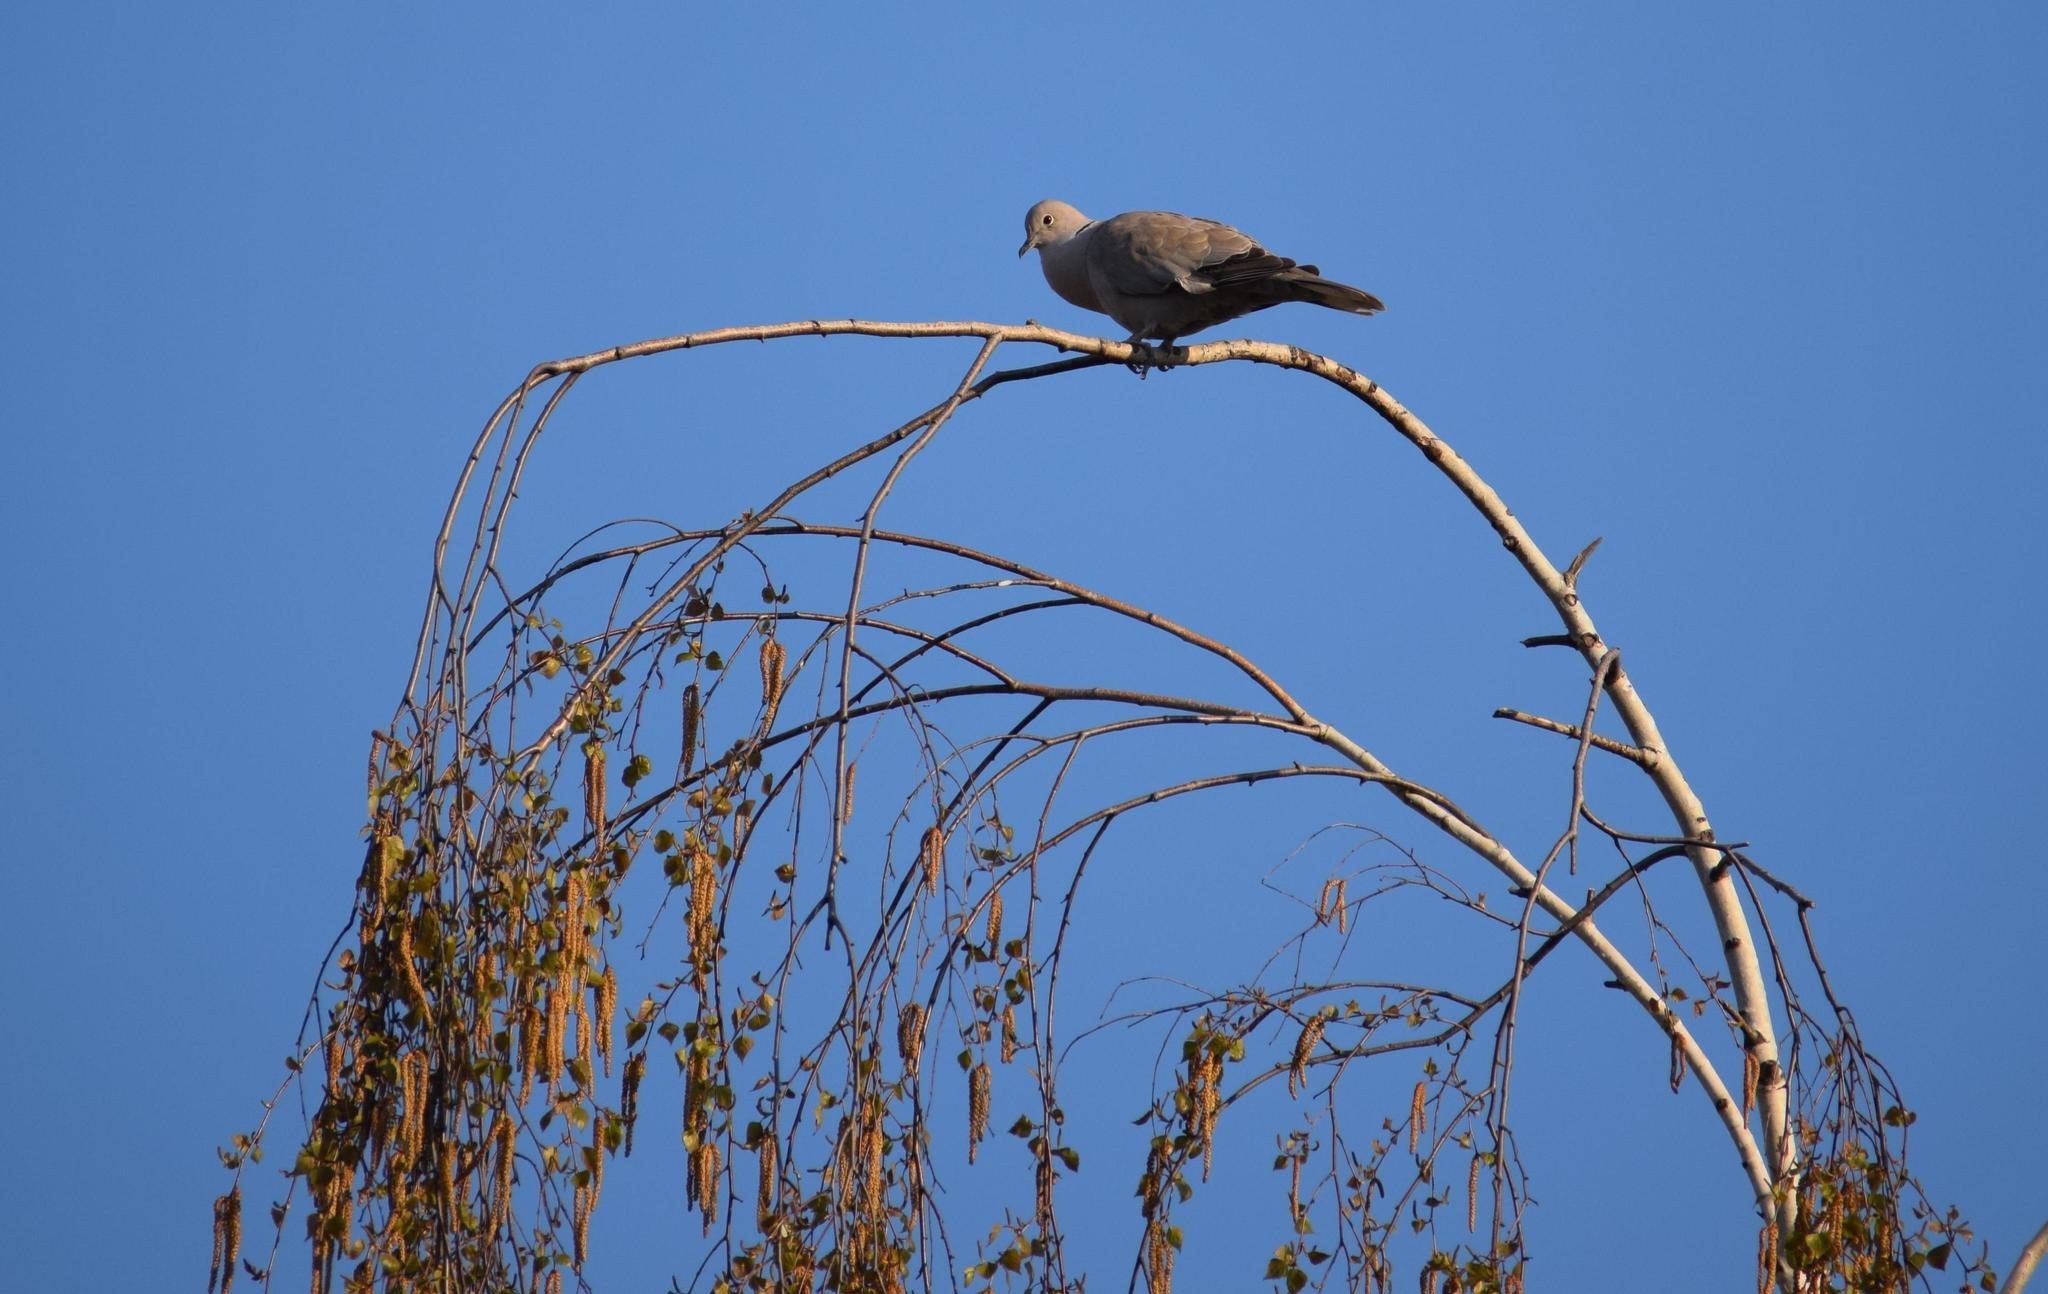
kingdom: Animalia
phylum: Chordata
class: Aves
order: Columbiformes
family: Columbidae
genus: Streptopelia
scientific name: Streptopelia decaocto
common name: Eurasian collared dove
